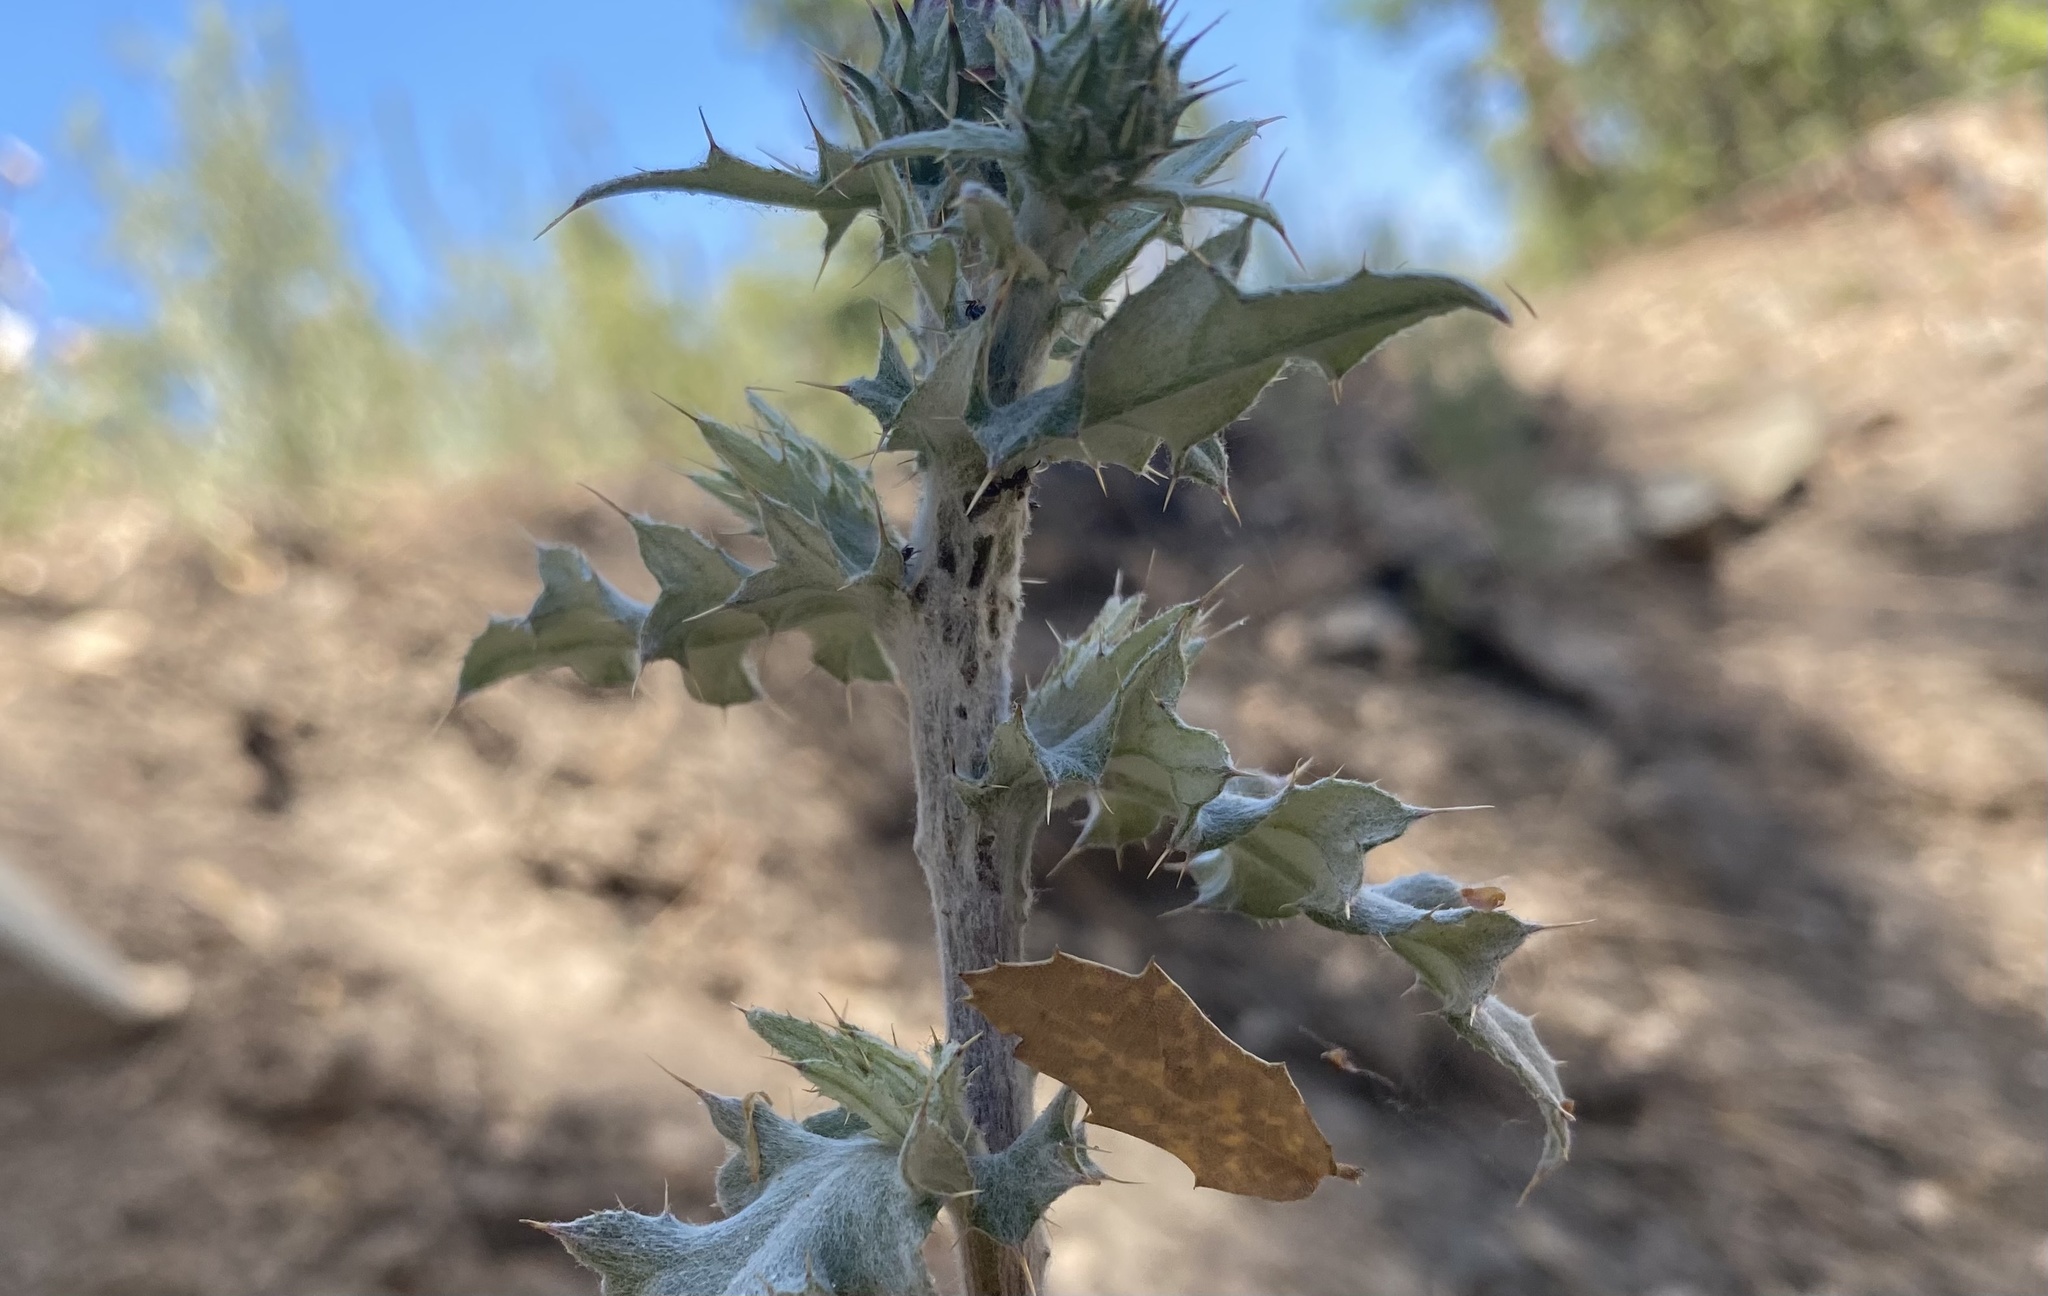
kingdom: Animalia
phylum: Arthropoda
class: Insecta
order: Hemiptera
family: Membracidae
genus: Publilia
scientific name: Publilia porrecta
